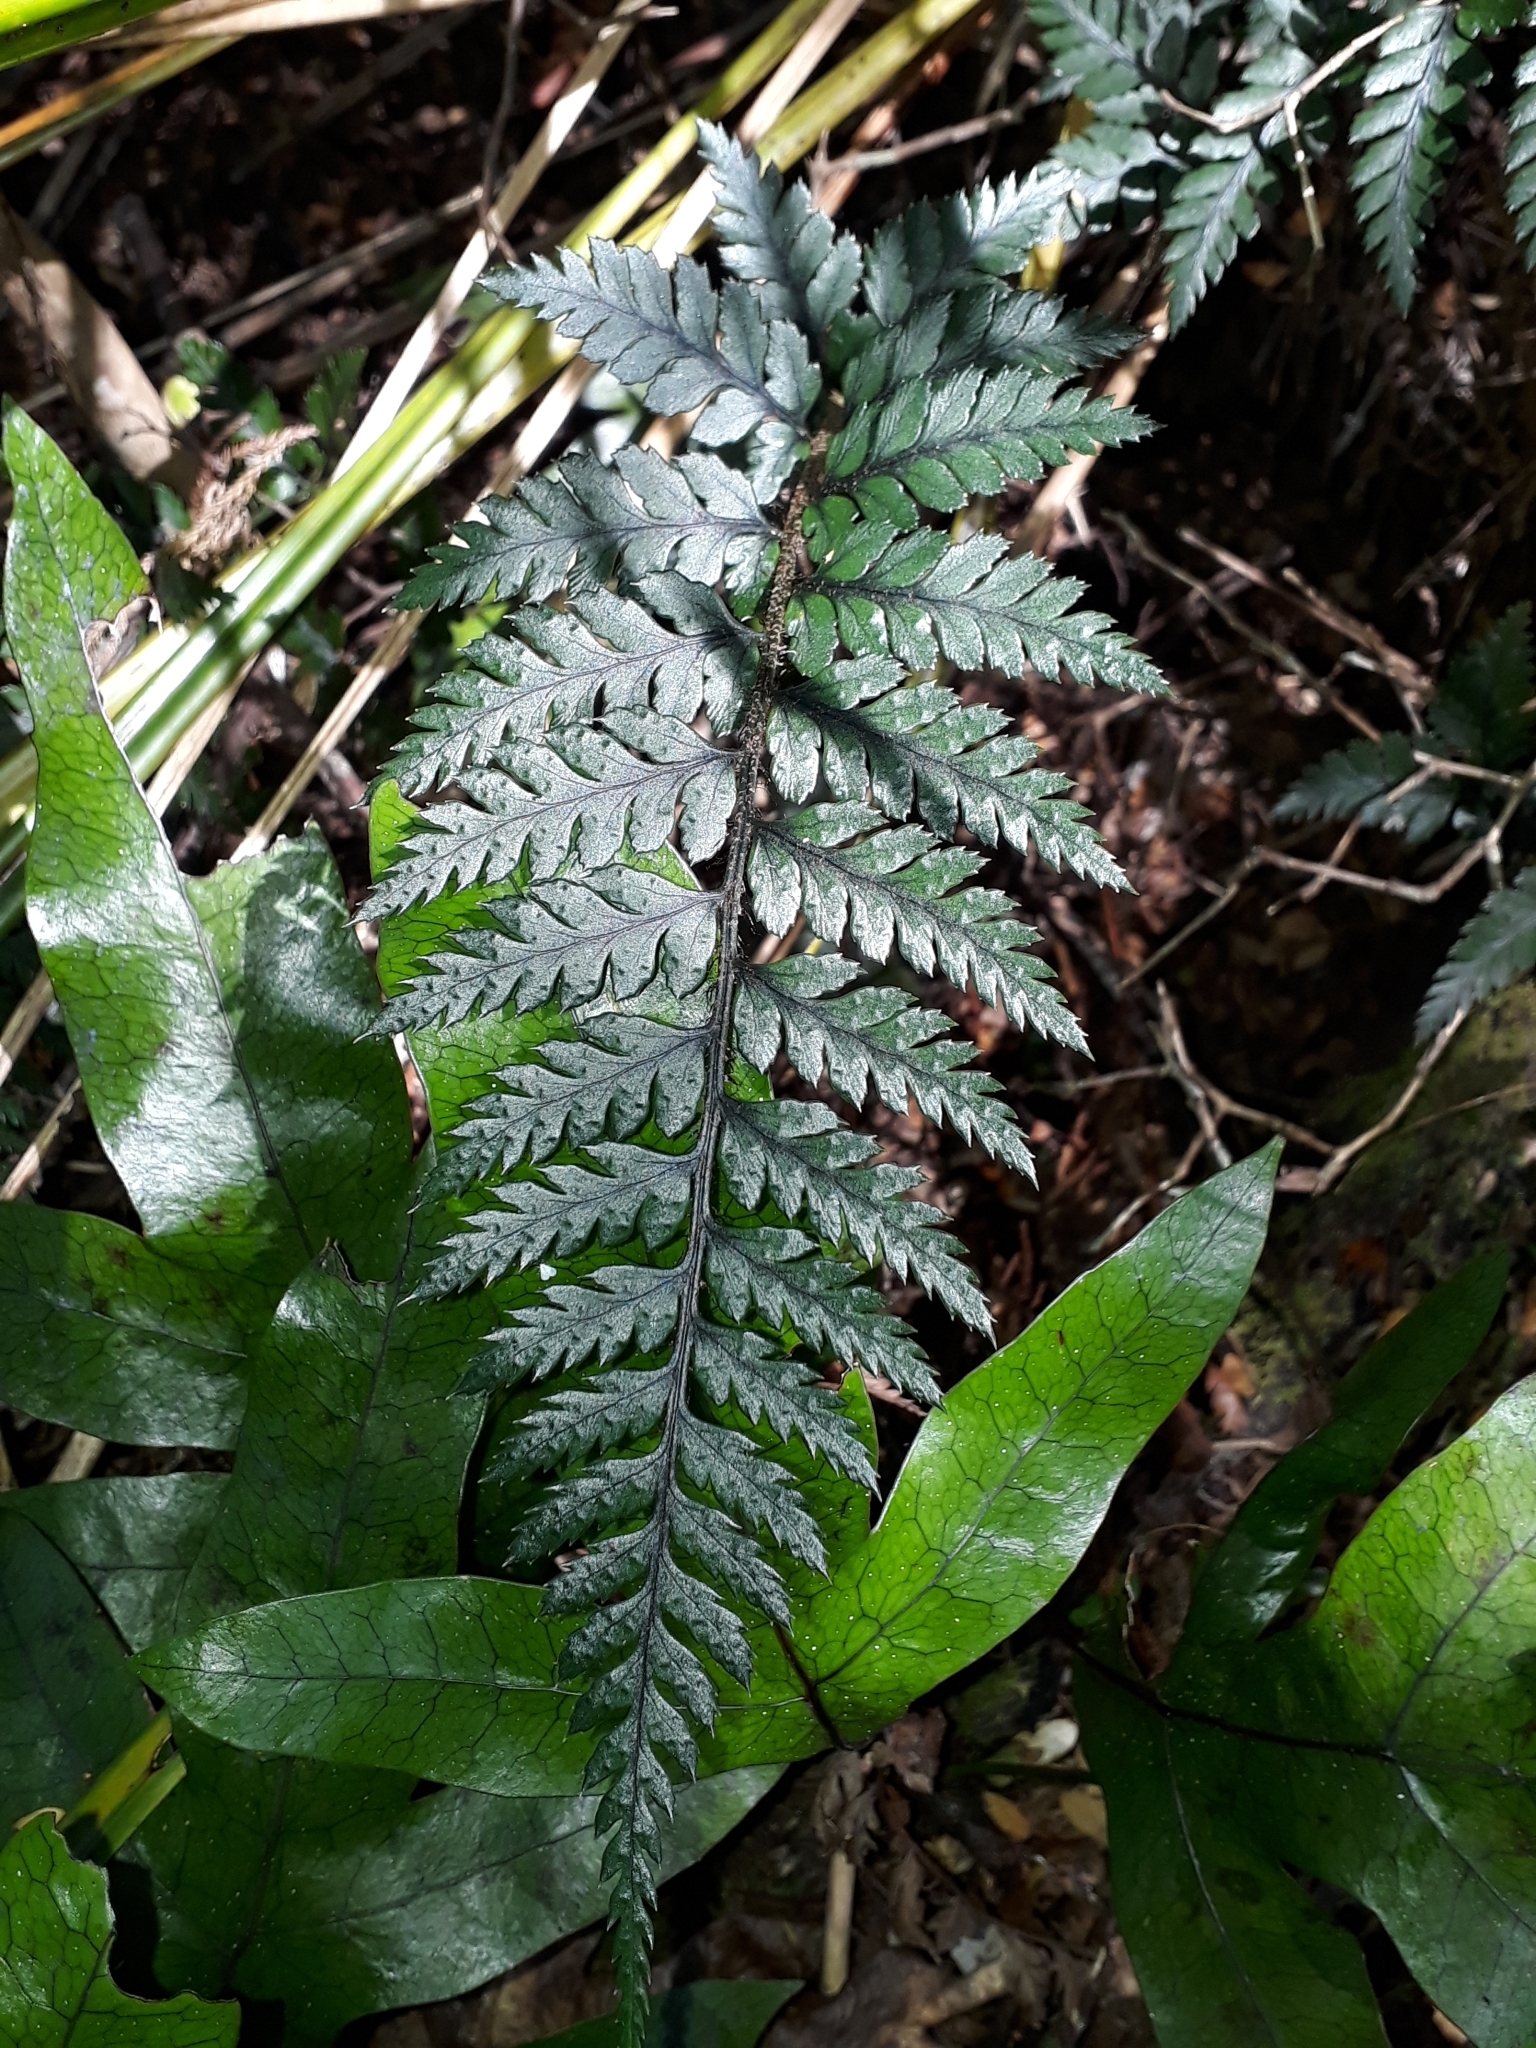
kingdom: Plantae
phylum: Tracheophyta
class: Polypodiopsida
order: Polypodiales
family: Dryopteridaceae
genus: Polystichum
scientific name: Polystichum neozelandicum
